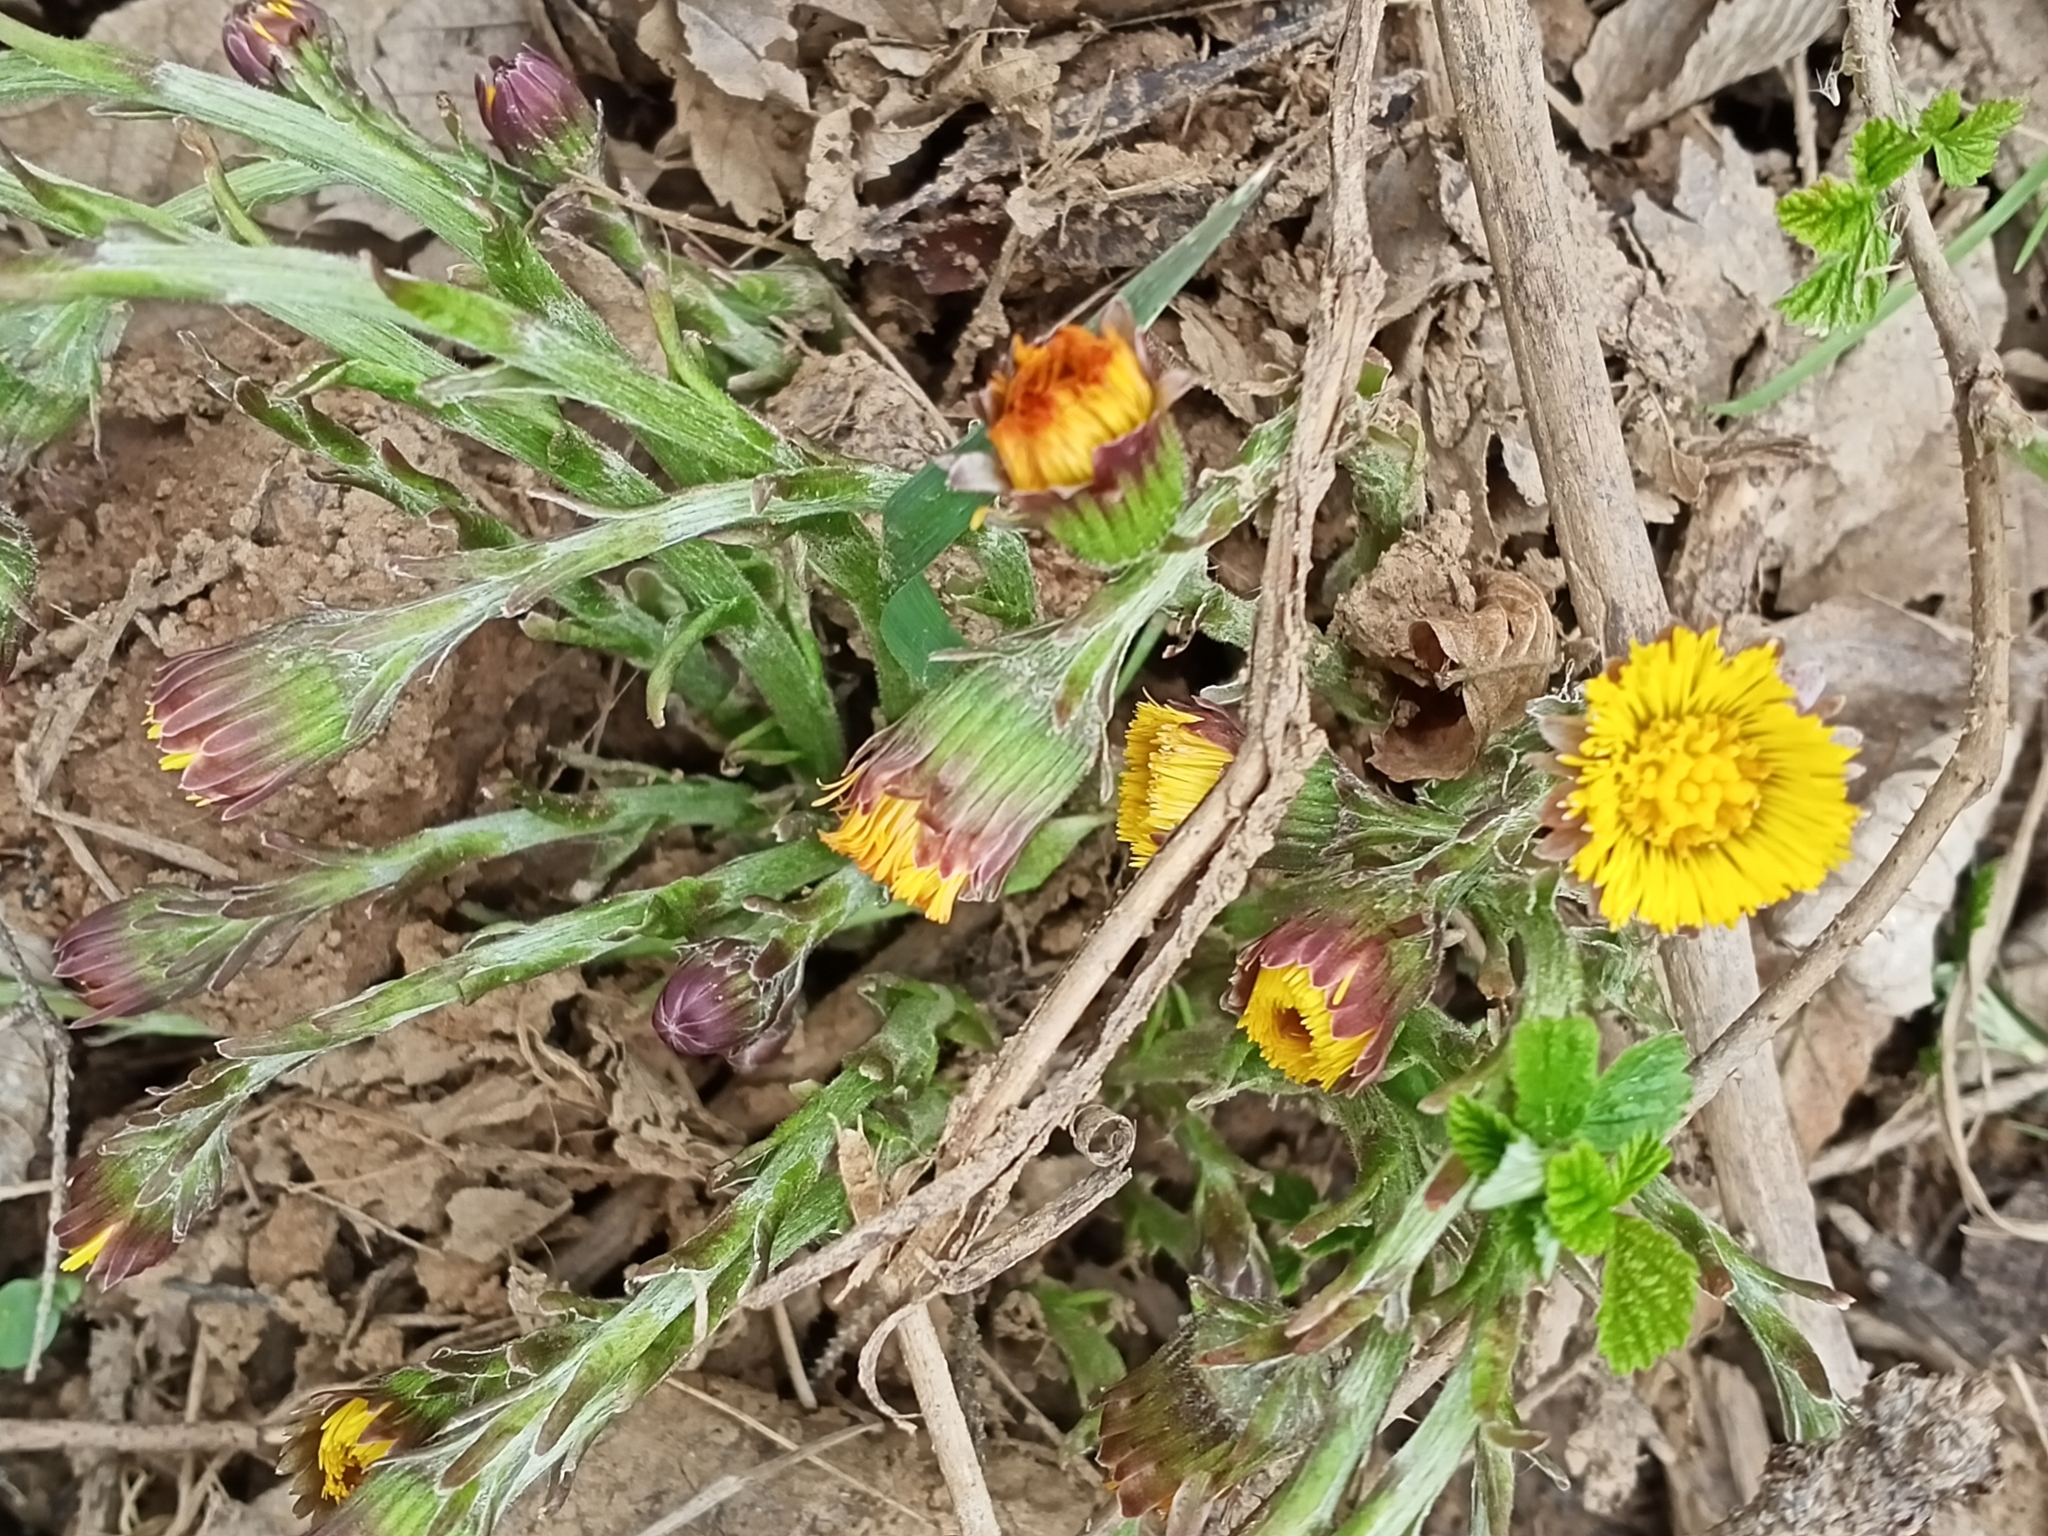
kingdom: Plantae
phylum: Tracheophyta
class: Magnoliopsida
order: Asterales
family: Asteraceae
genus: Tussilago
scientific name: Tussilago farfara
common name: Coltsfoot
